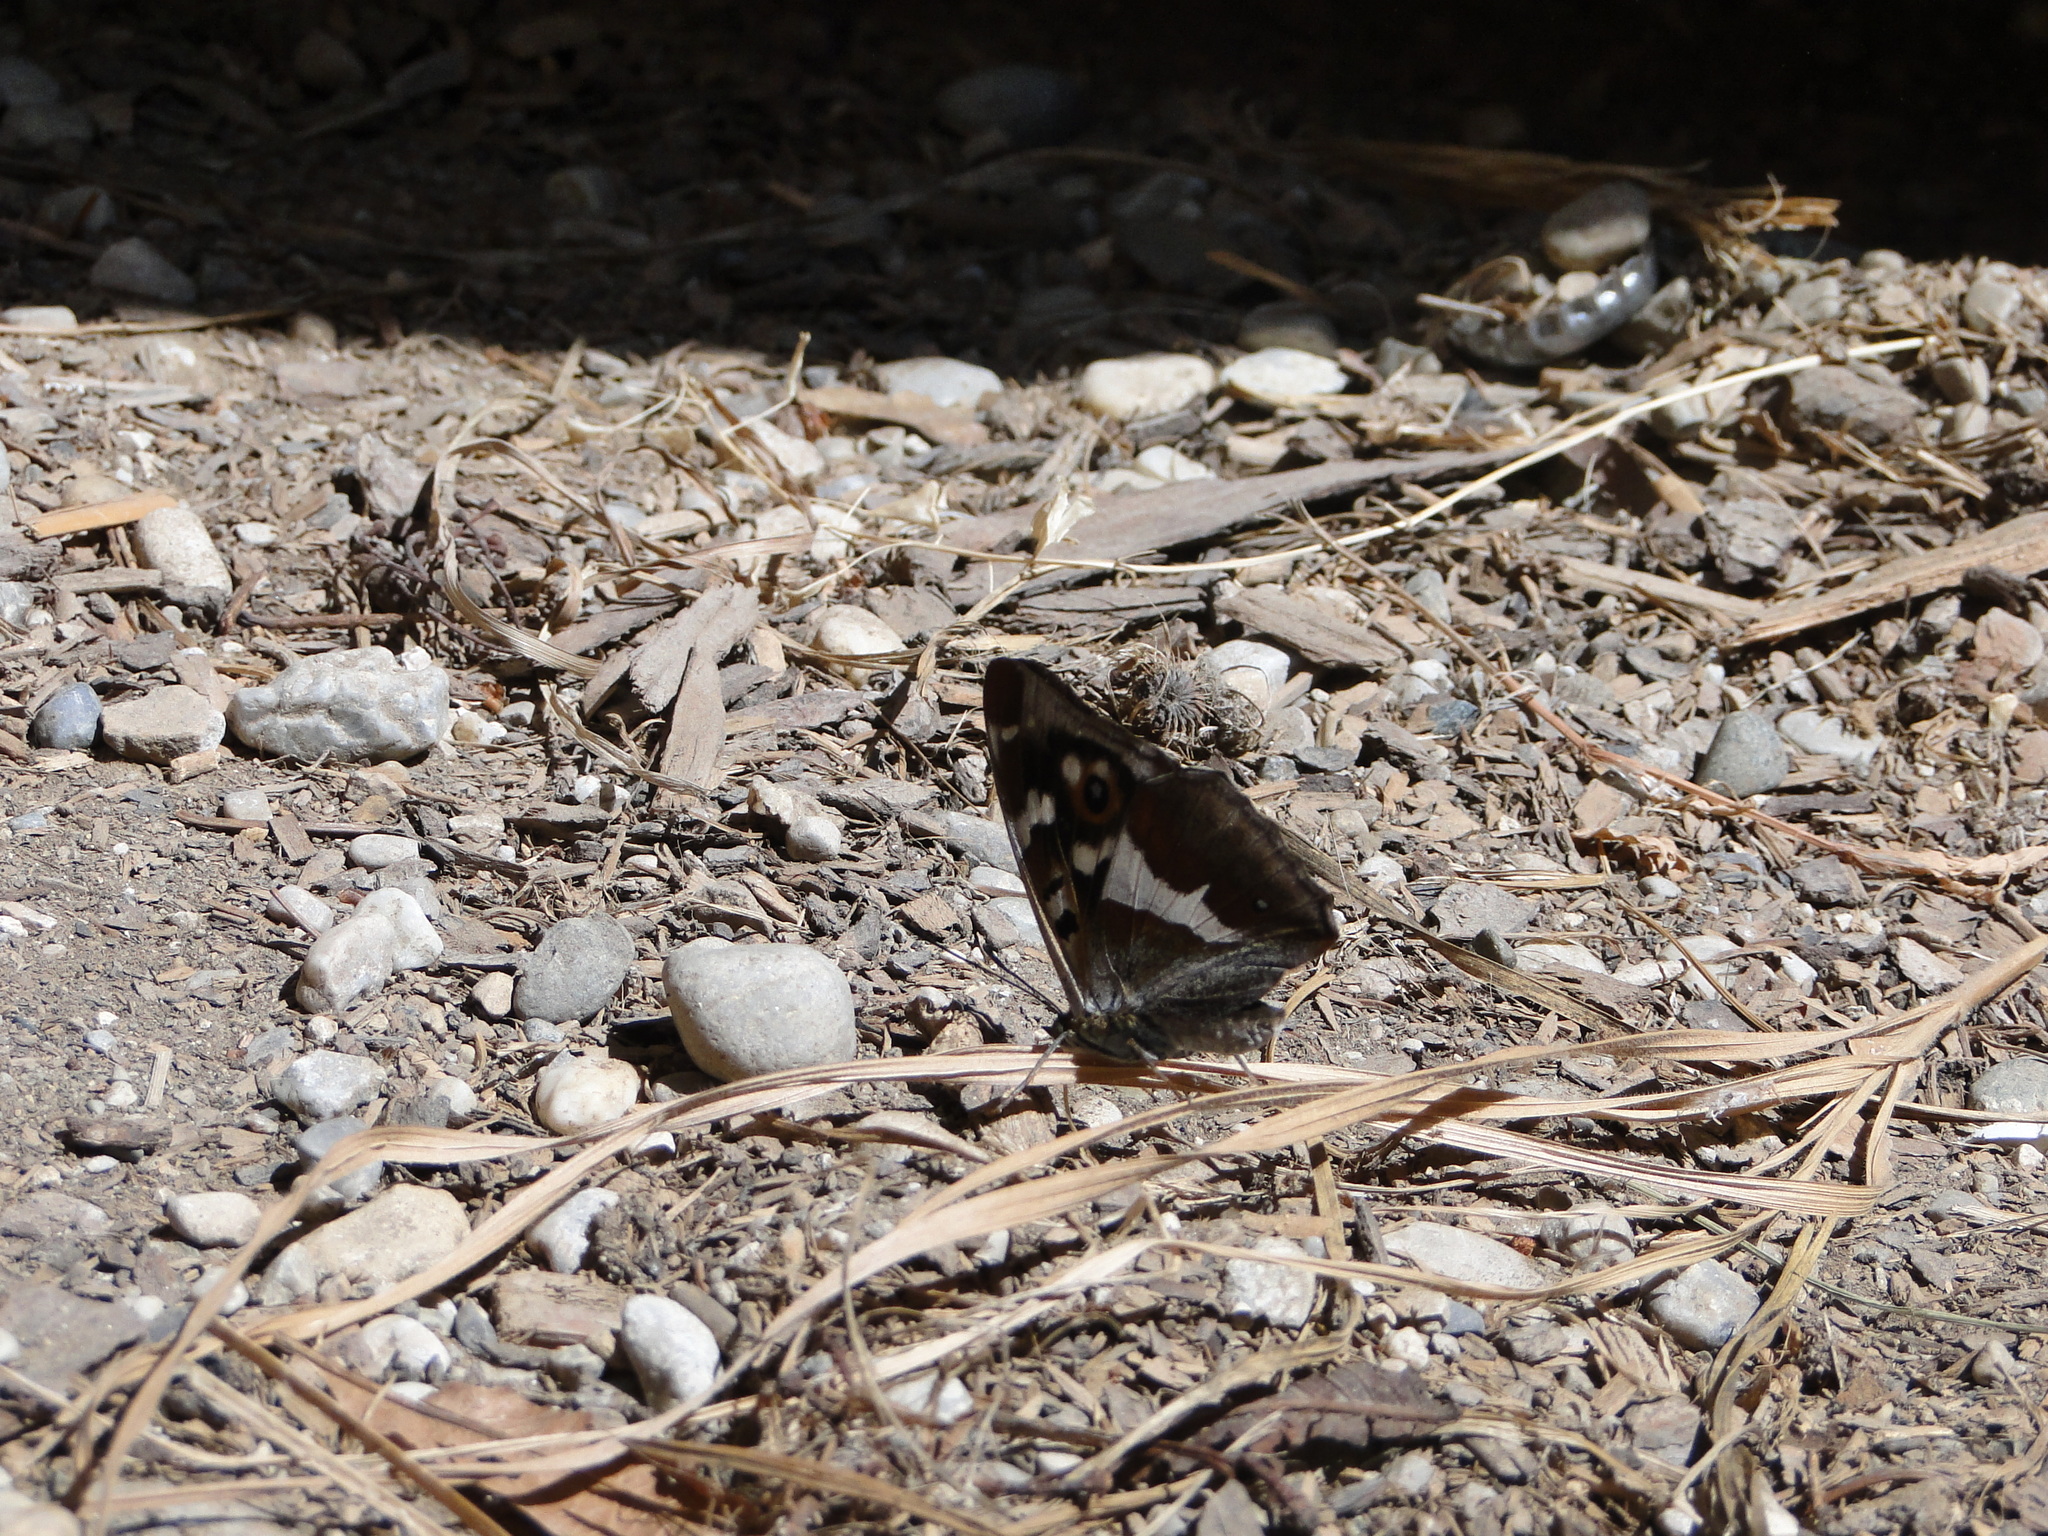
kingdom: Animalia
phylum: Arthropoda
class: Insecta
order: Lepidoptera
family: Nymphalidae
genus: Apatura
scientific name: Apatura iris
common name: Purple emperor
